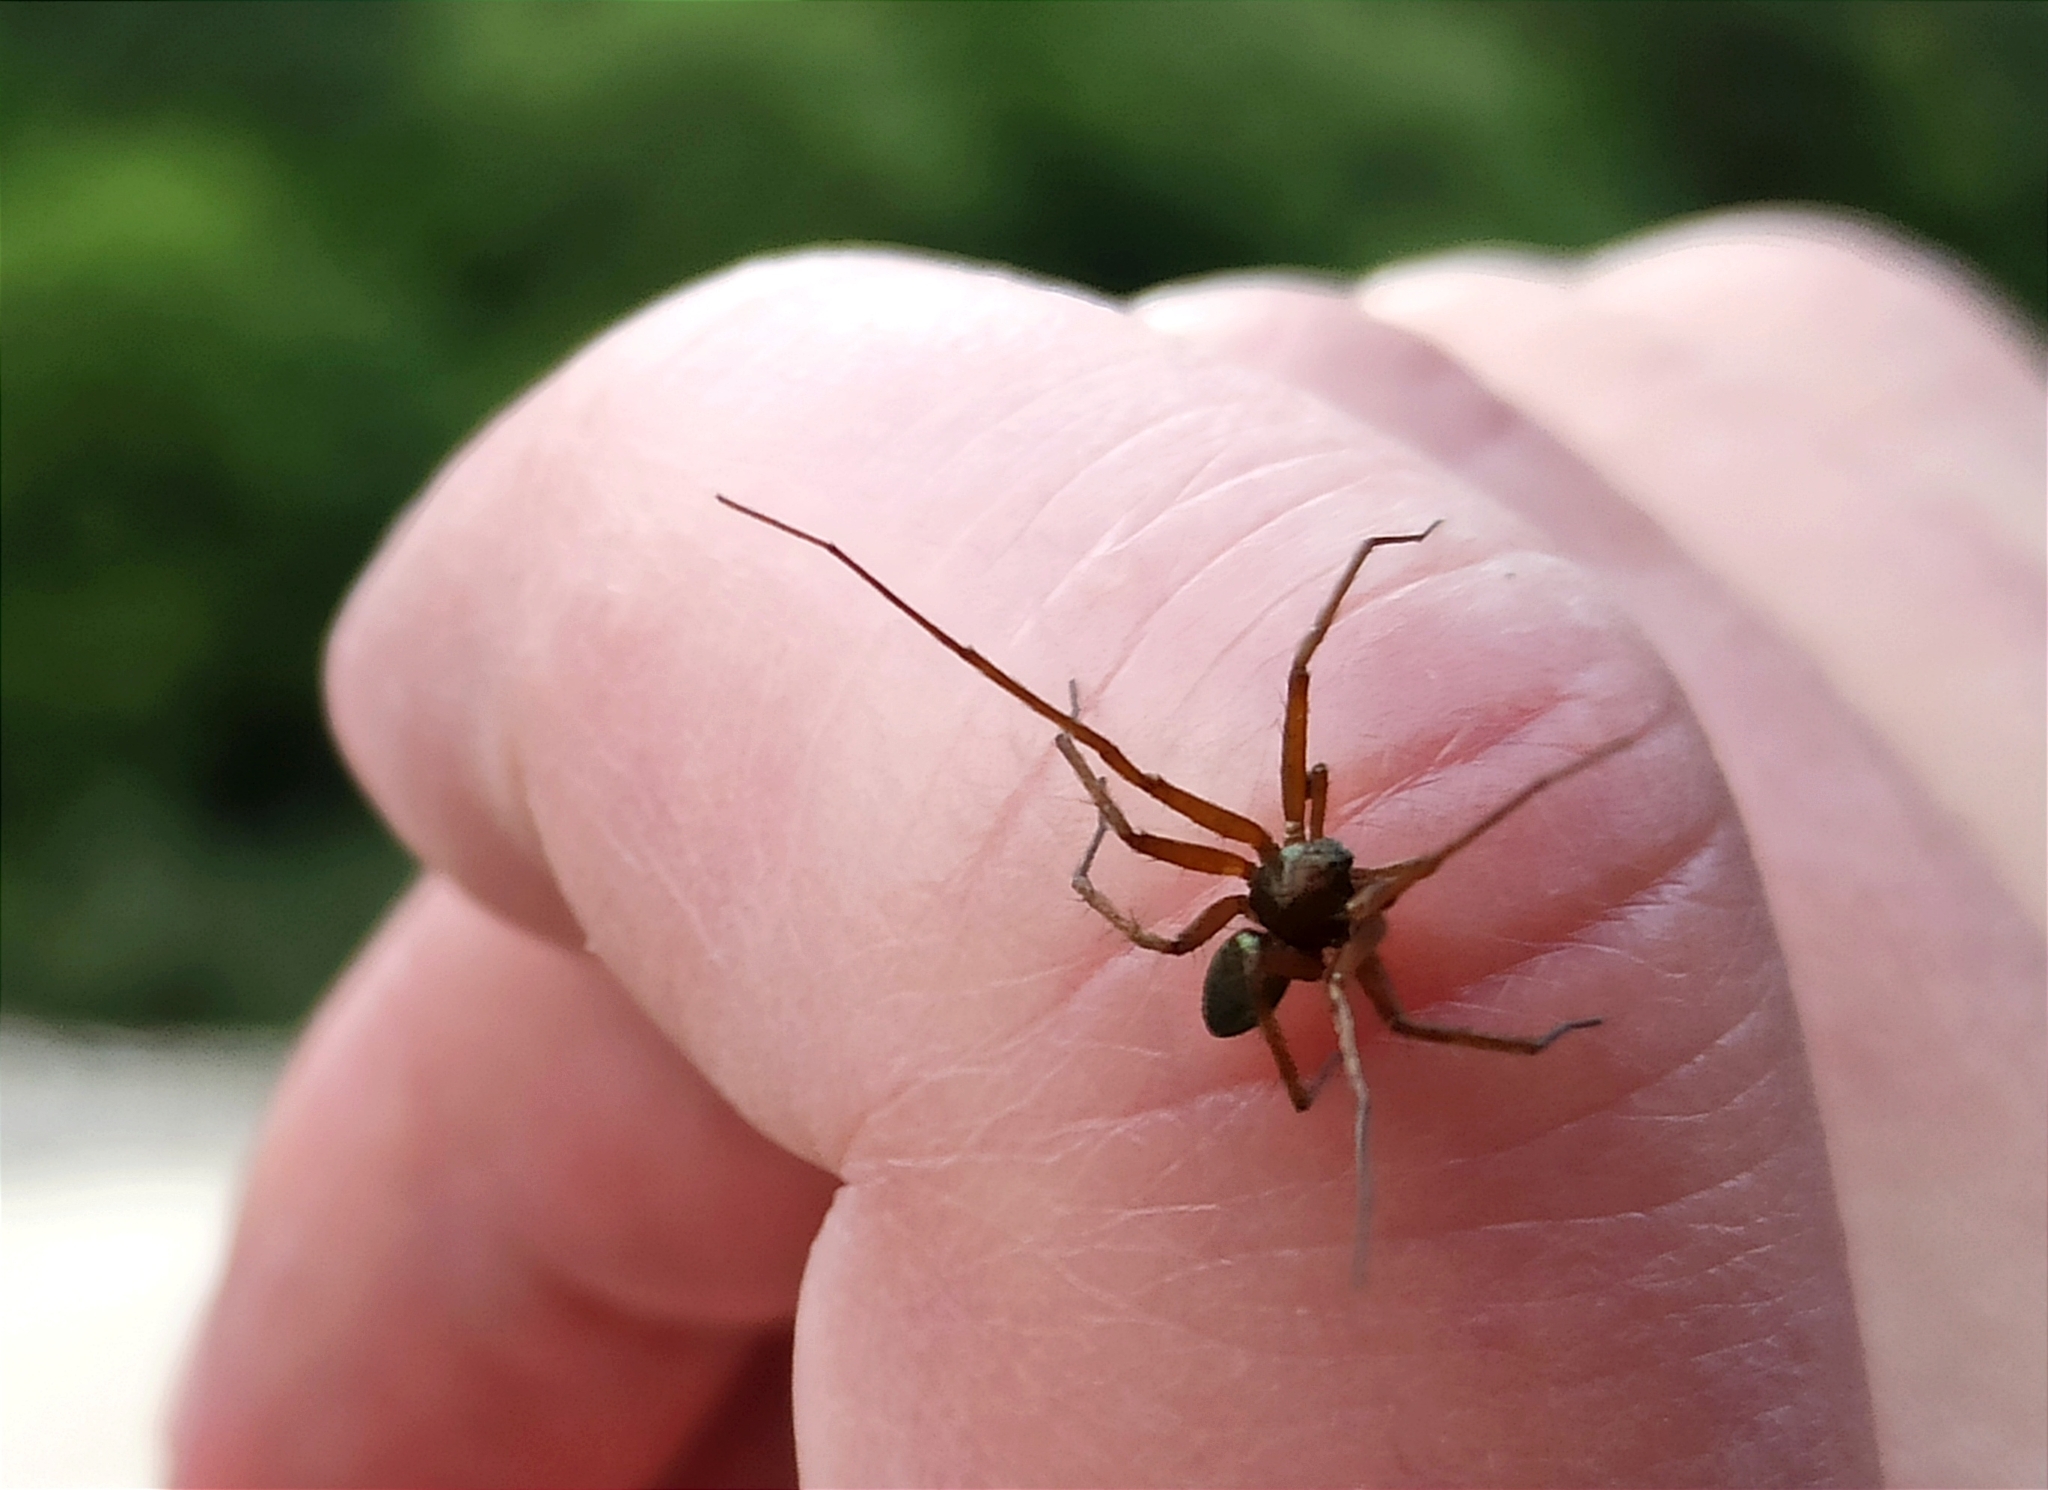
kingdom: Animalia
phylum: Arthropoda
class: Arachnida
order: Araneae
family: Philodromidae
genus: Philodromus
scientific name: Philodromus
